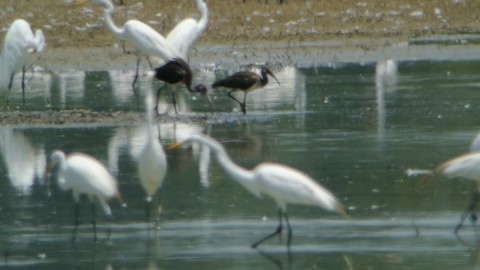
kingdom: Animalia
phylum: Chordata
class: Aves
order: Pelecaniformes
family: Threskiornithidae
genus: Eudocimus
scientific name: Eudocimus albus
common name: White ibis
